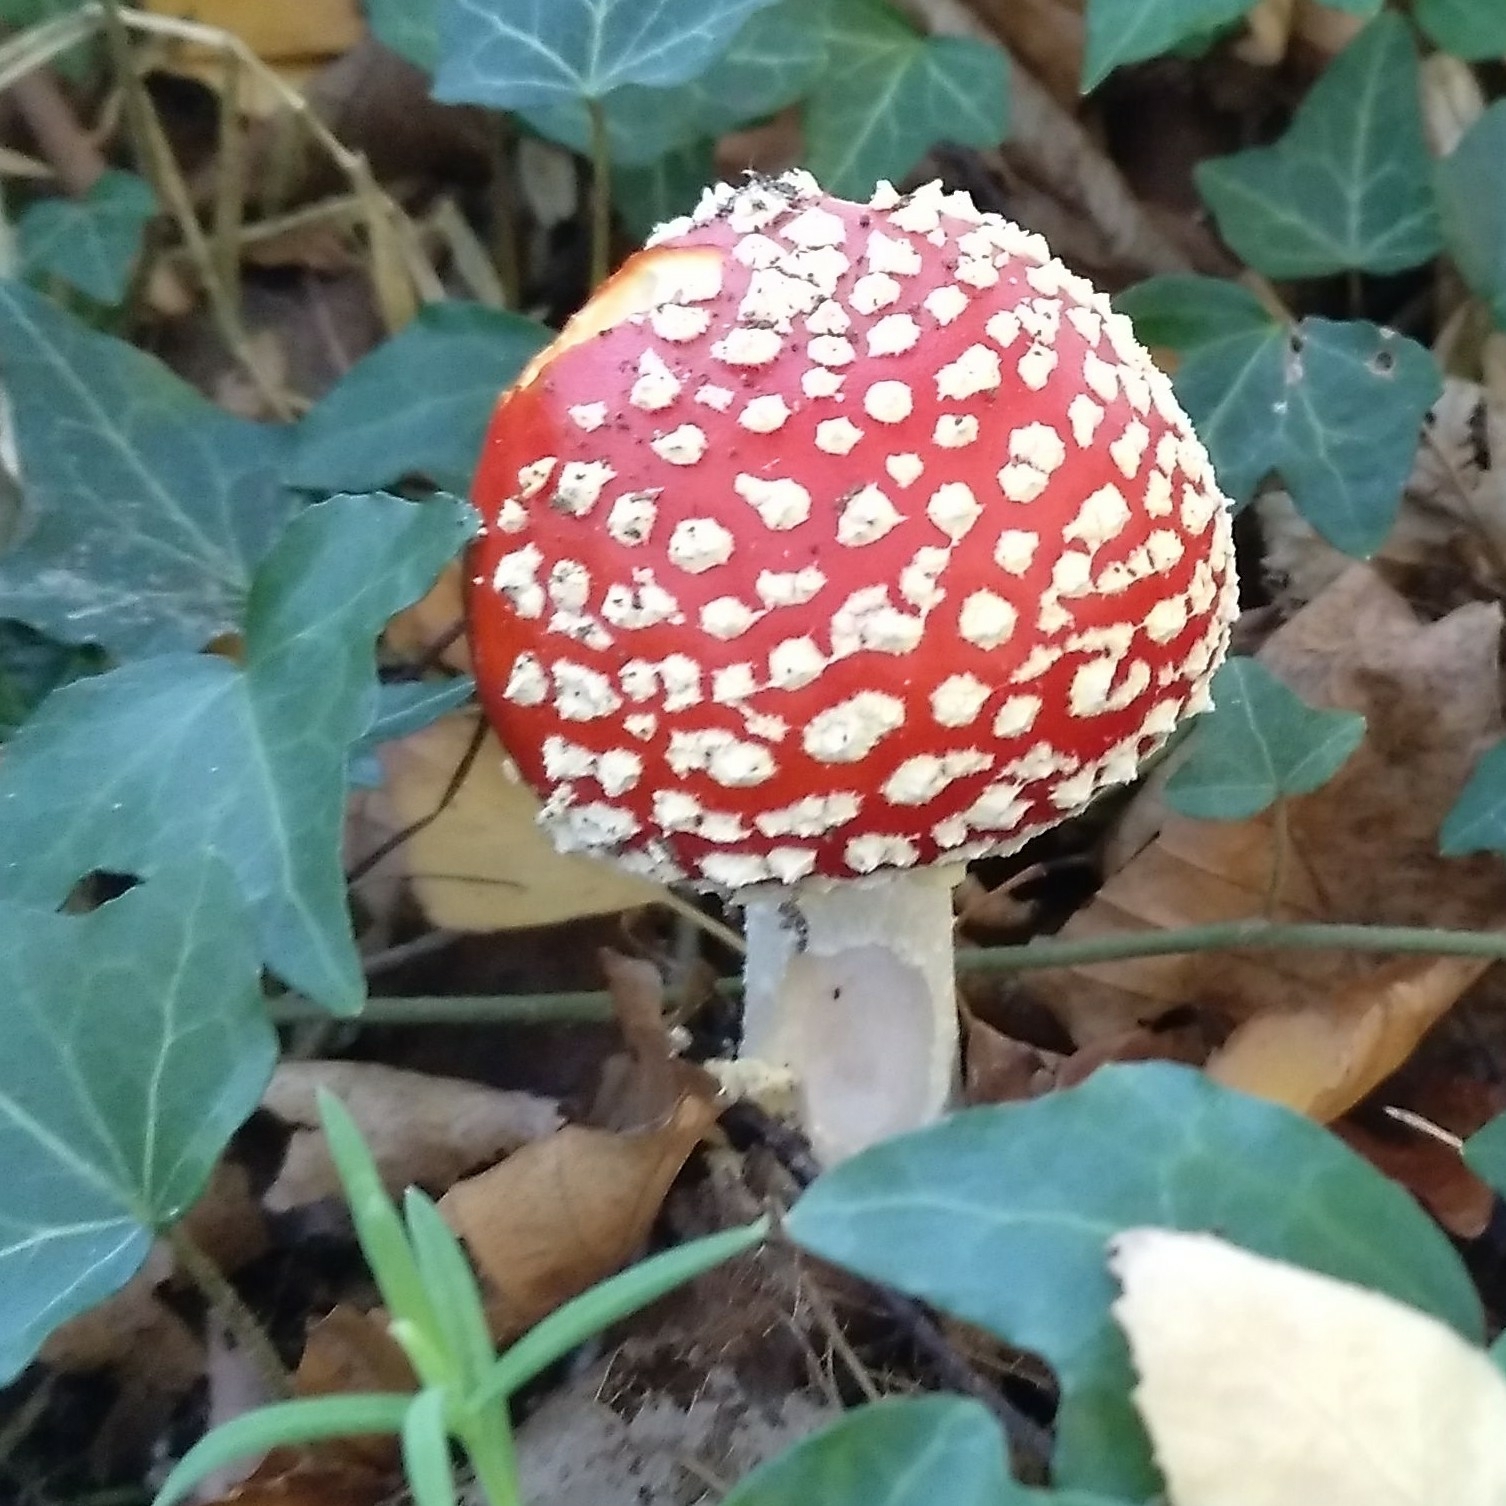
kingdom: Fungi
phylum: Basidiomycota
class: Agaricomycetes
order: Agaricales
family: Amanitaceae
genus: Amanita
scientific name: Amanita muscaria
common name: Fly agaric
